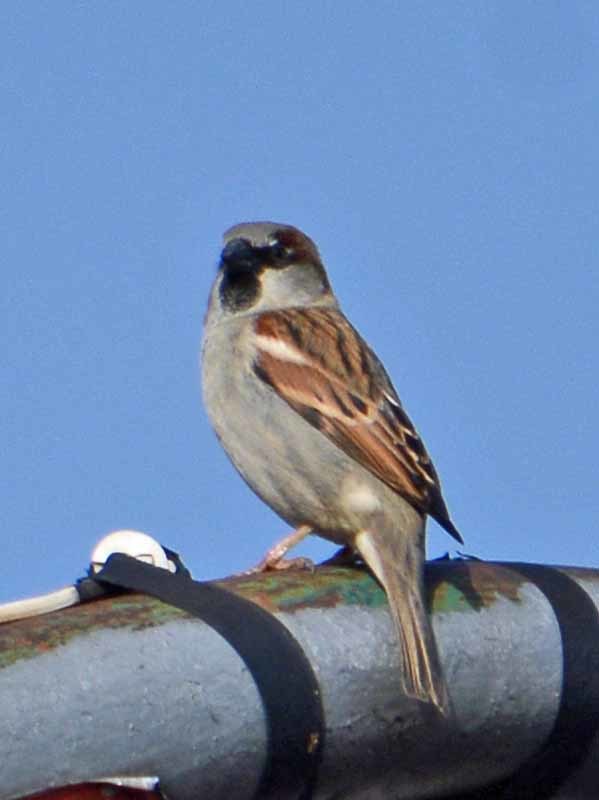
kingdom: Animalia
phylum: Chordata
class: Aves
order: Passeriformes
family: Passeridae
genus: Passer
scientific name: Passer domesticus
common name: House sparrow
